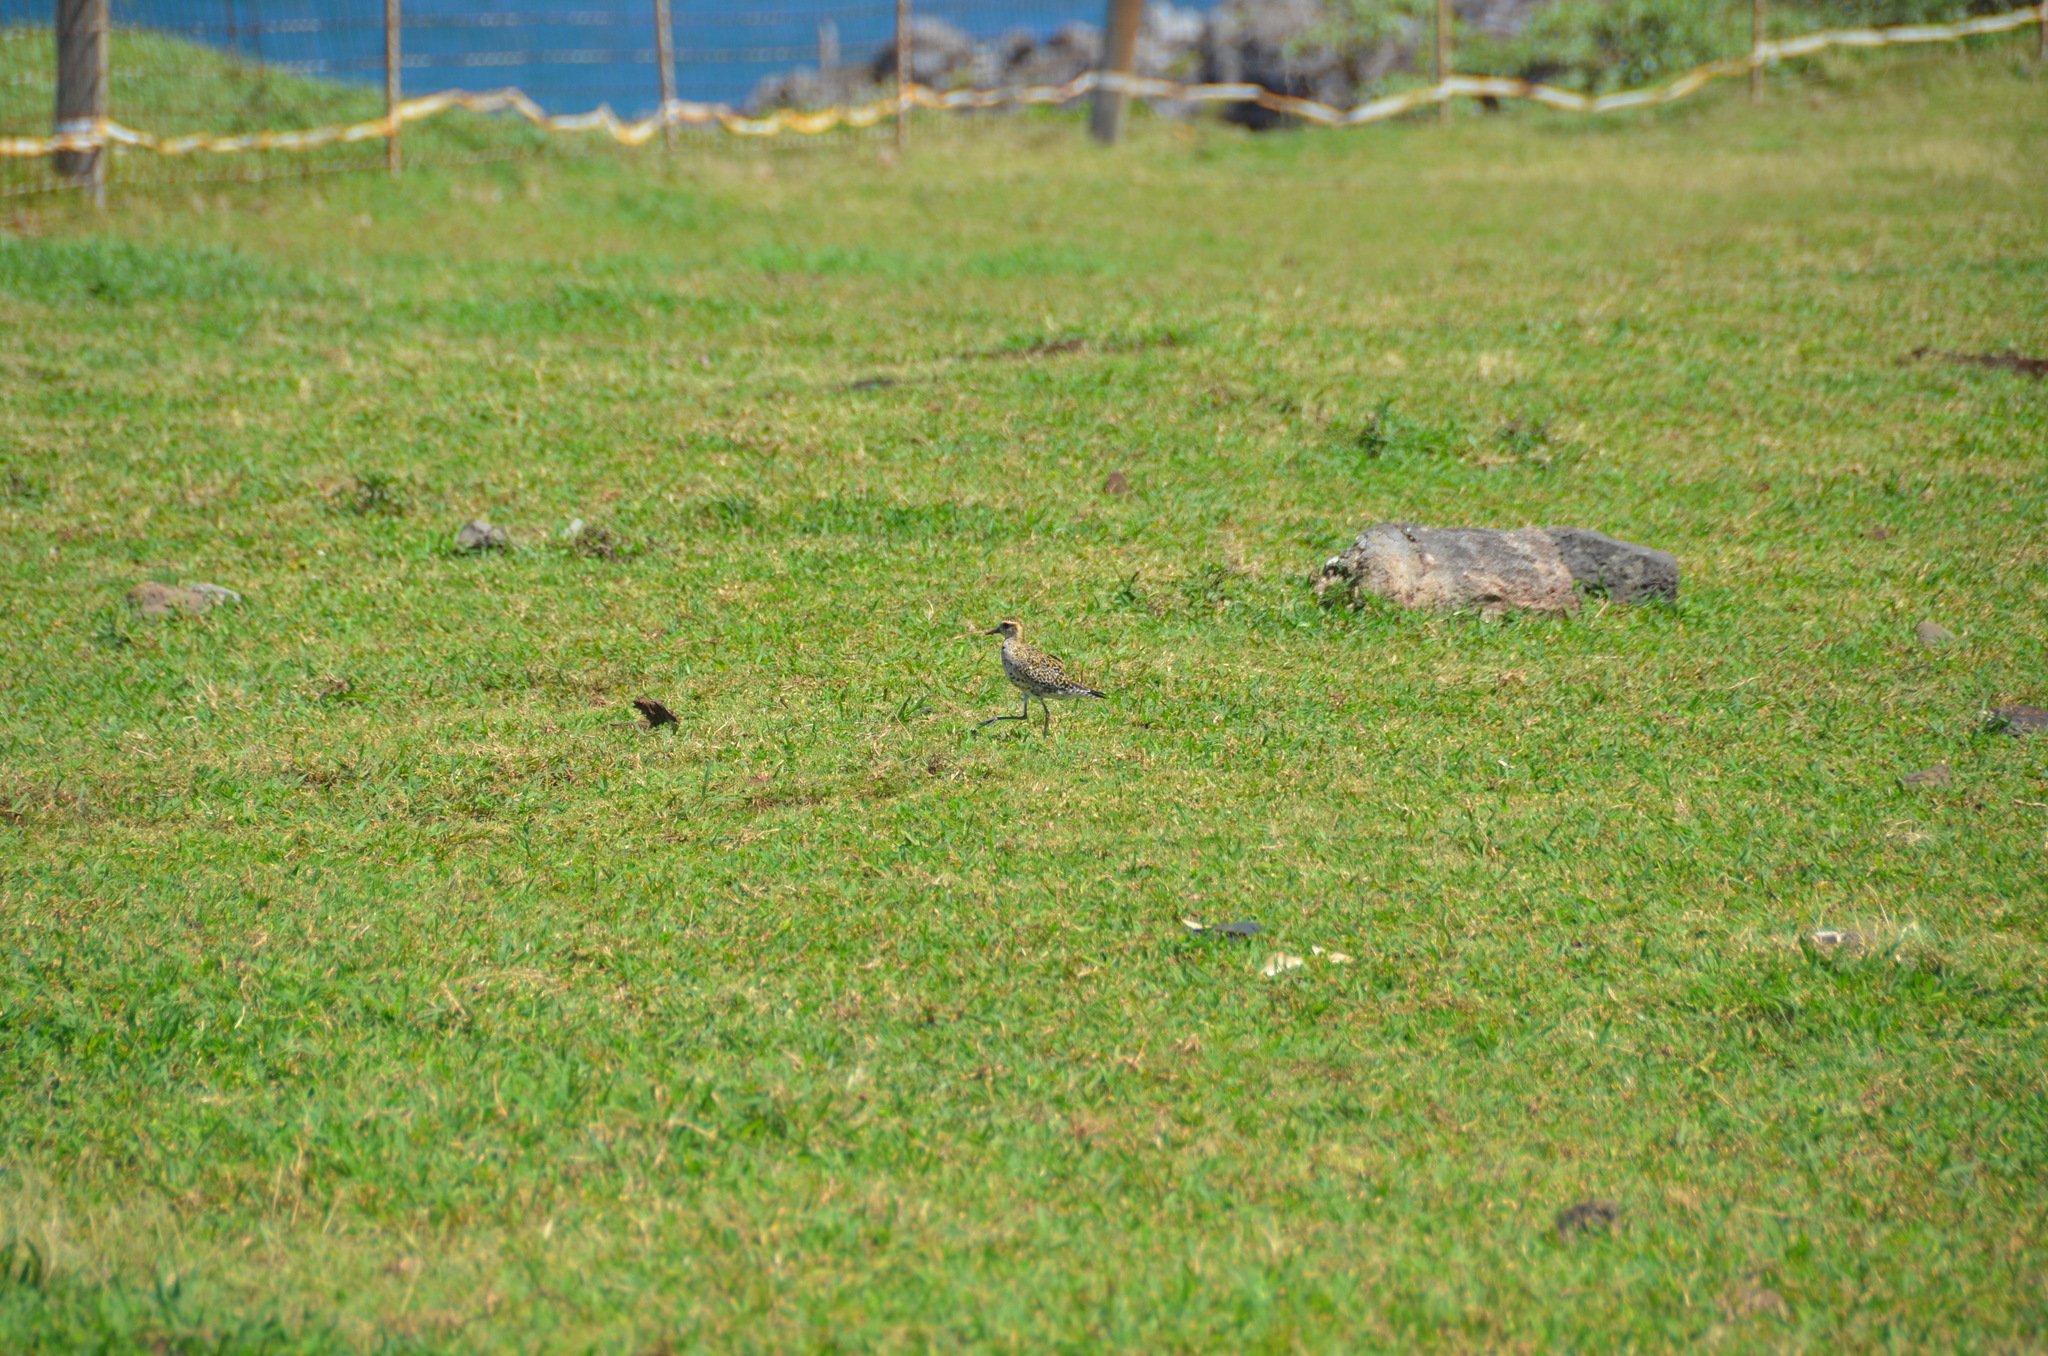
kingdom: Animalia
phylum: Chordata
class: Aves
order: Charadriiformes
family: Charadriidae
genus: Pluvialis
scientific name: Pluvialis fulva
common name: Pacific golden plover
